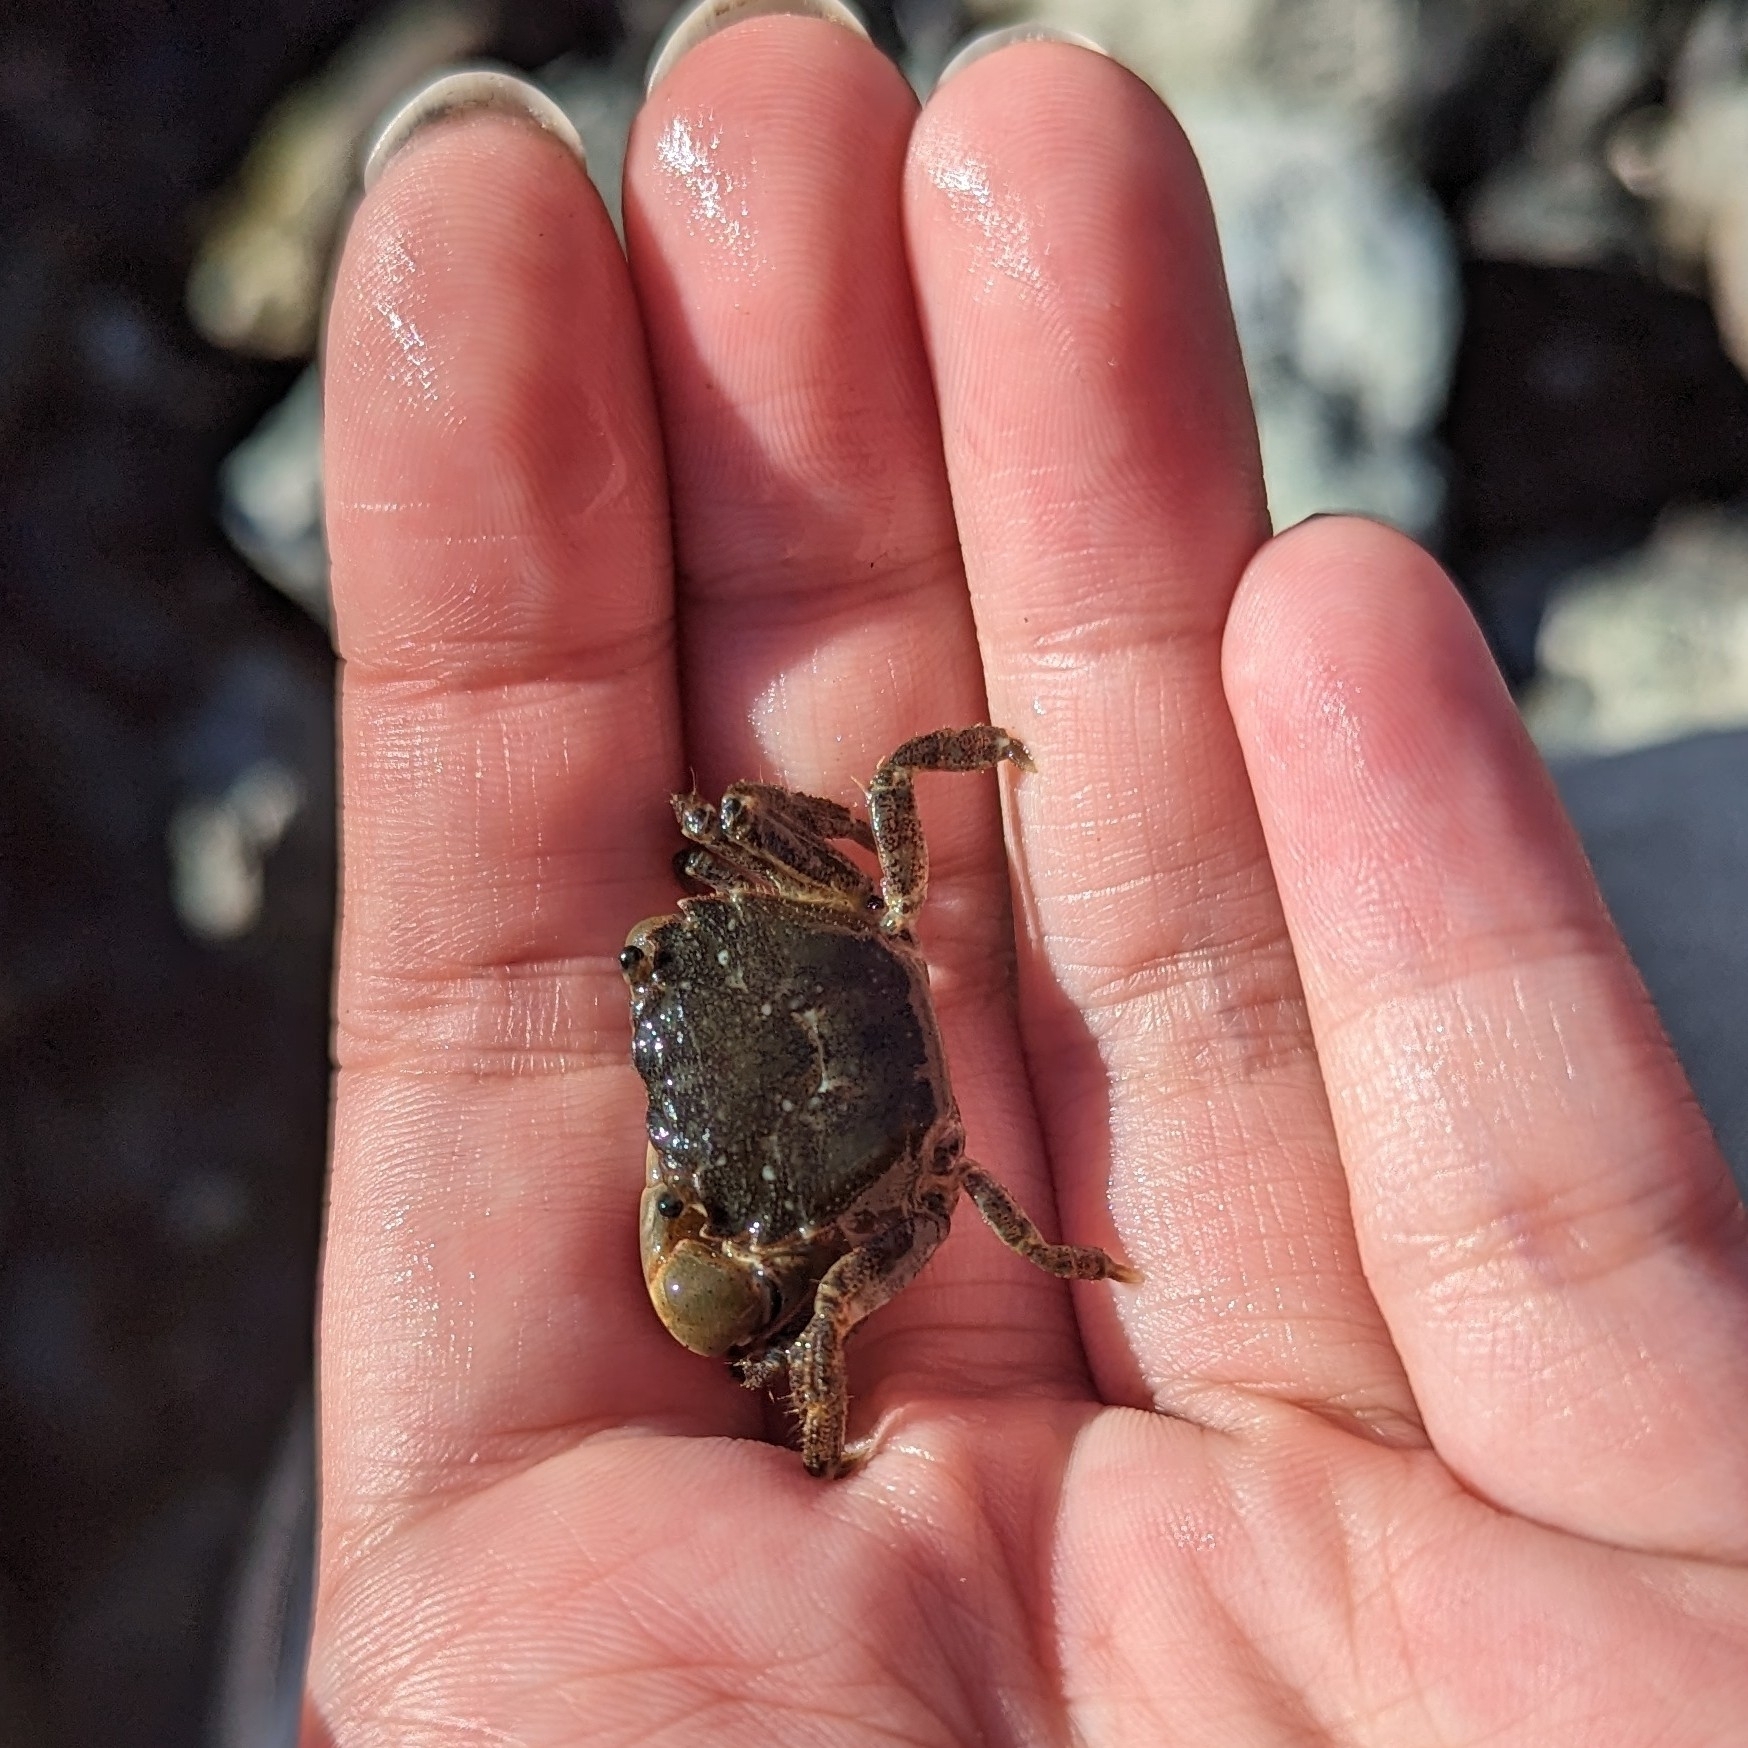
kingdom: Animalia
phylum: Arthropoda
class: Malacostraca
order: Decapoda
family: Varunidae
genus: Hemigrapsus
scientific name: Hemigrapsus oregonensis
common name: Yellow shore crab
